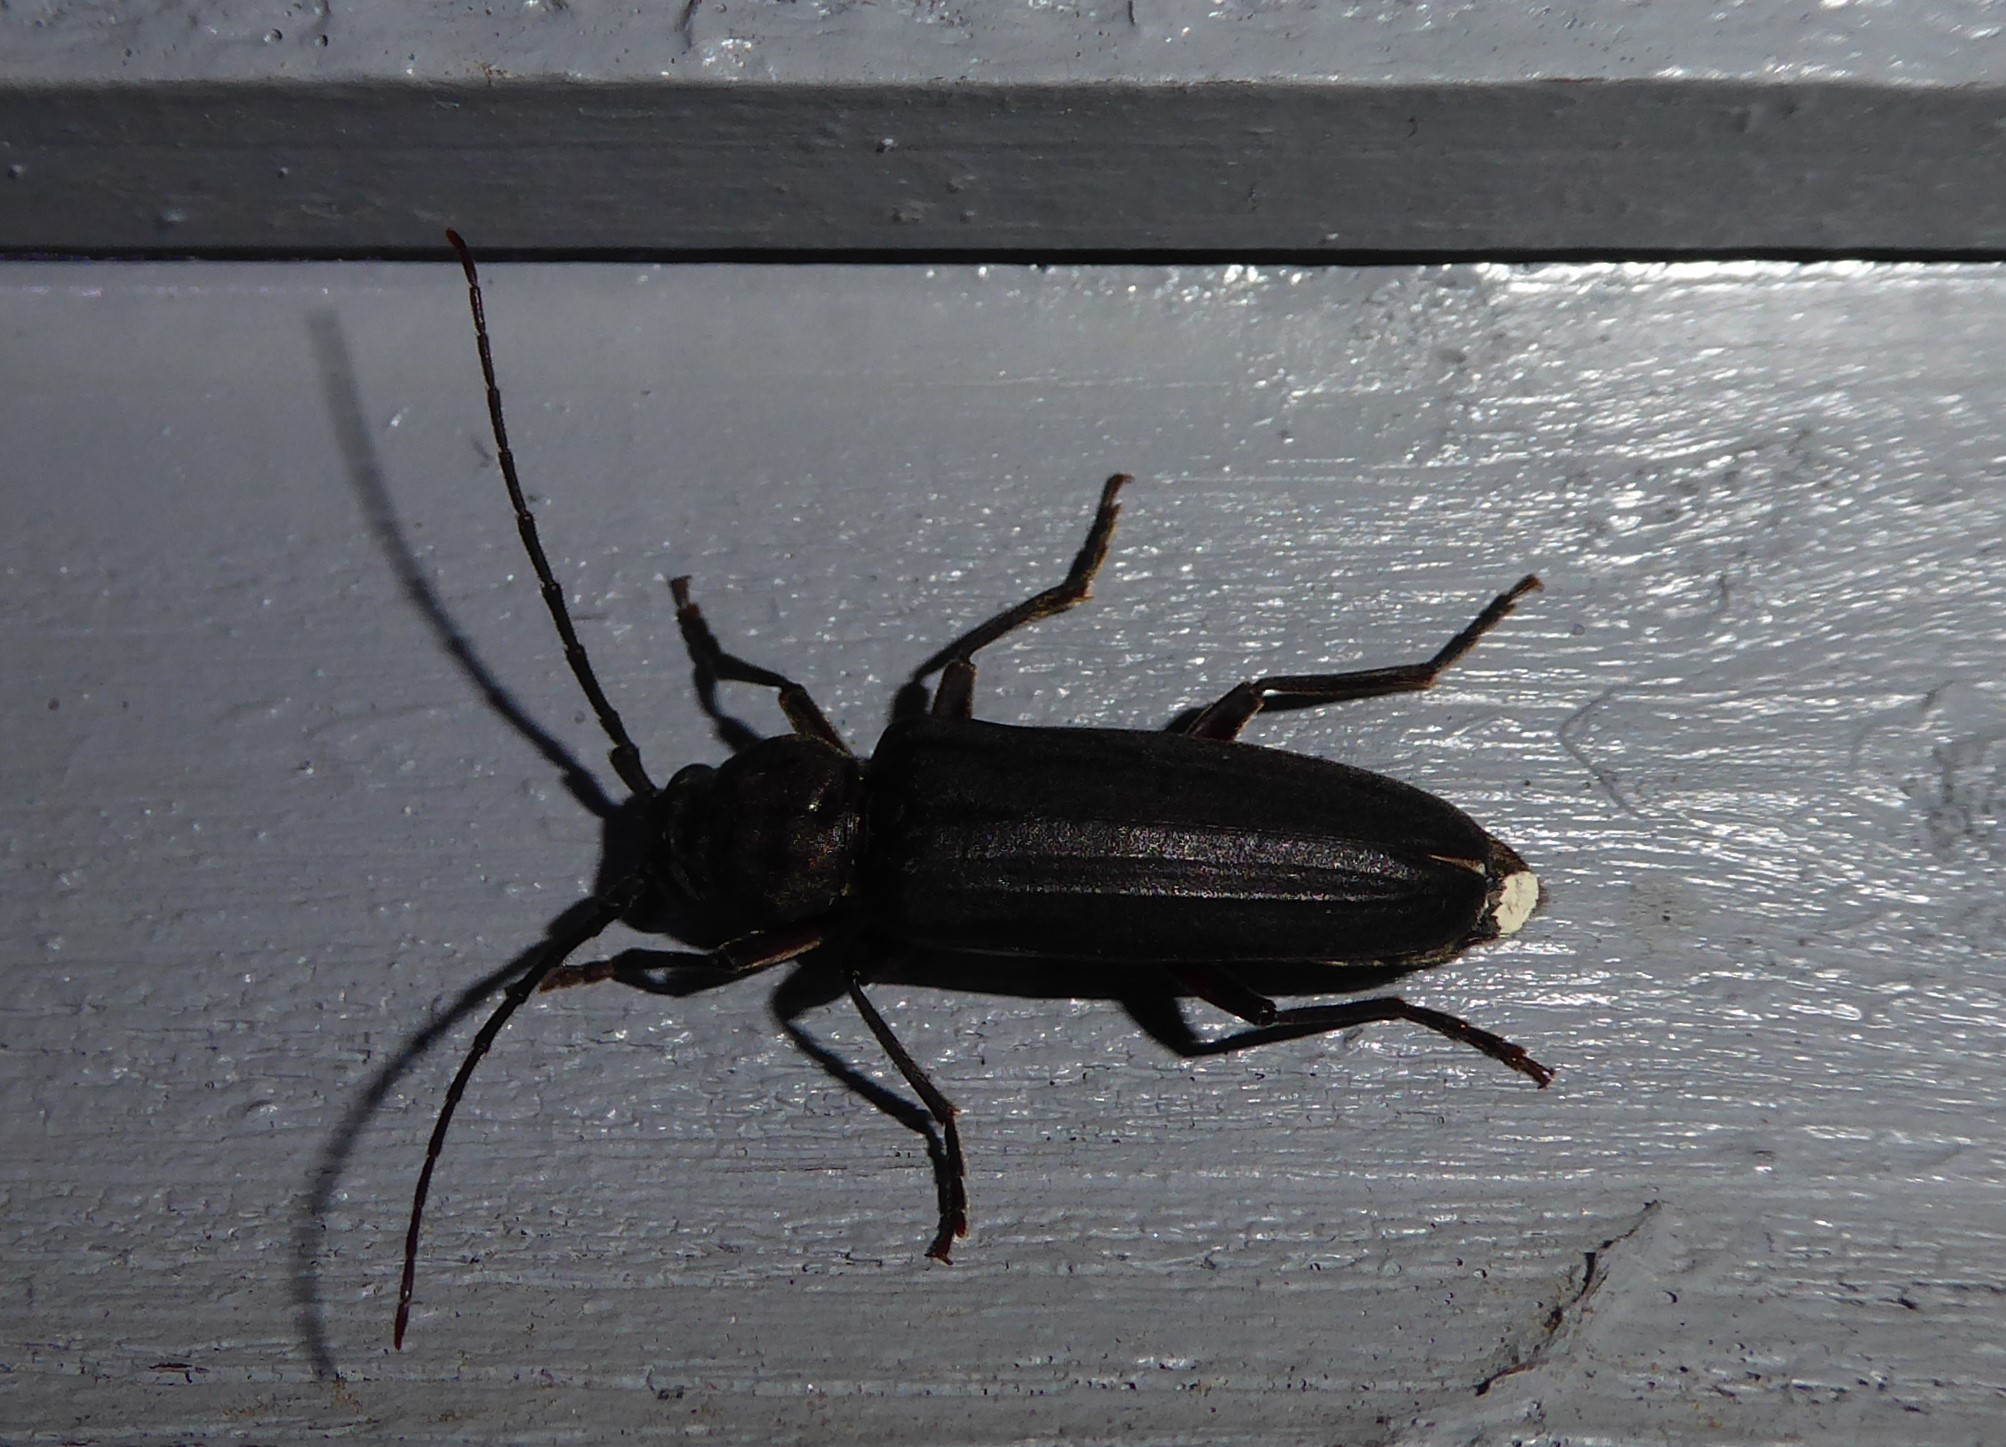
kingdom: Animalia
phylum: Arthropoda
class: Insecta
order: Coleoptera
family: Cerambycidae
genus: Arhopalus
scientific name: Arhopalus ferus
